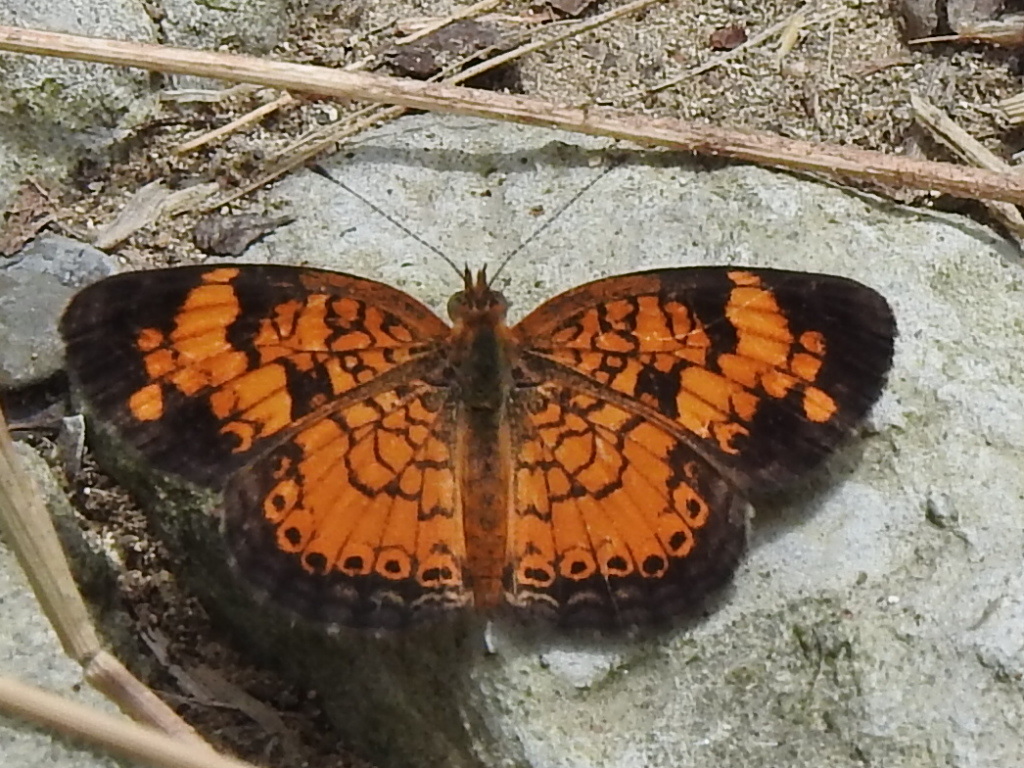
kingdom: Animalia
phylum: Arthropoda
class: Insecta
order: Lepidoptera
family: Nymphalidae
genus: Phyciodes
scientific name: Phyciodes tharos
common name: Pearl crescent
